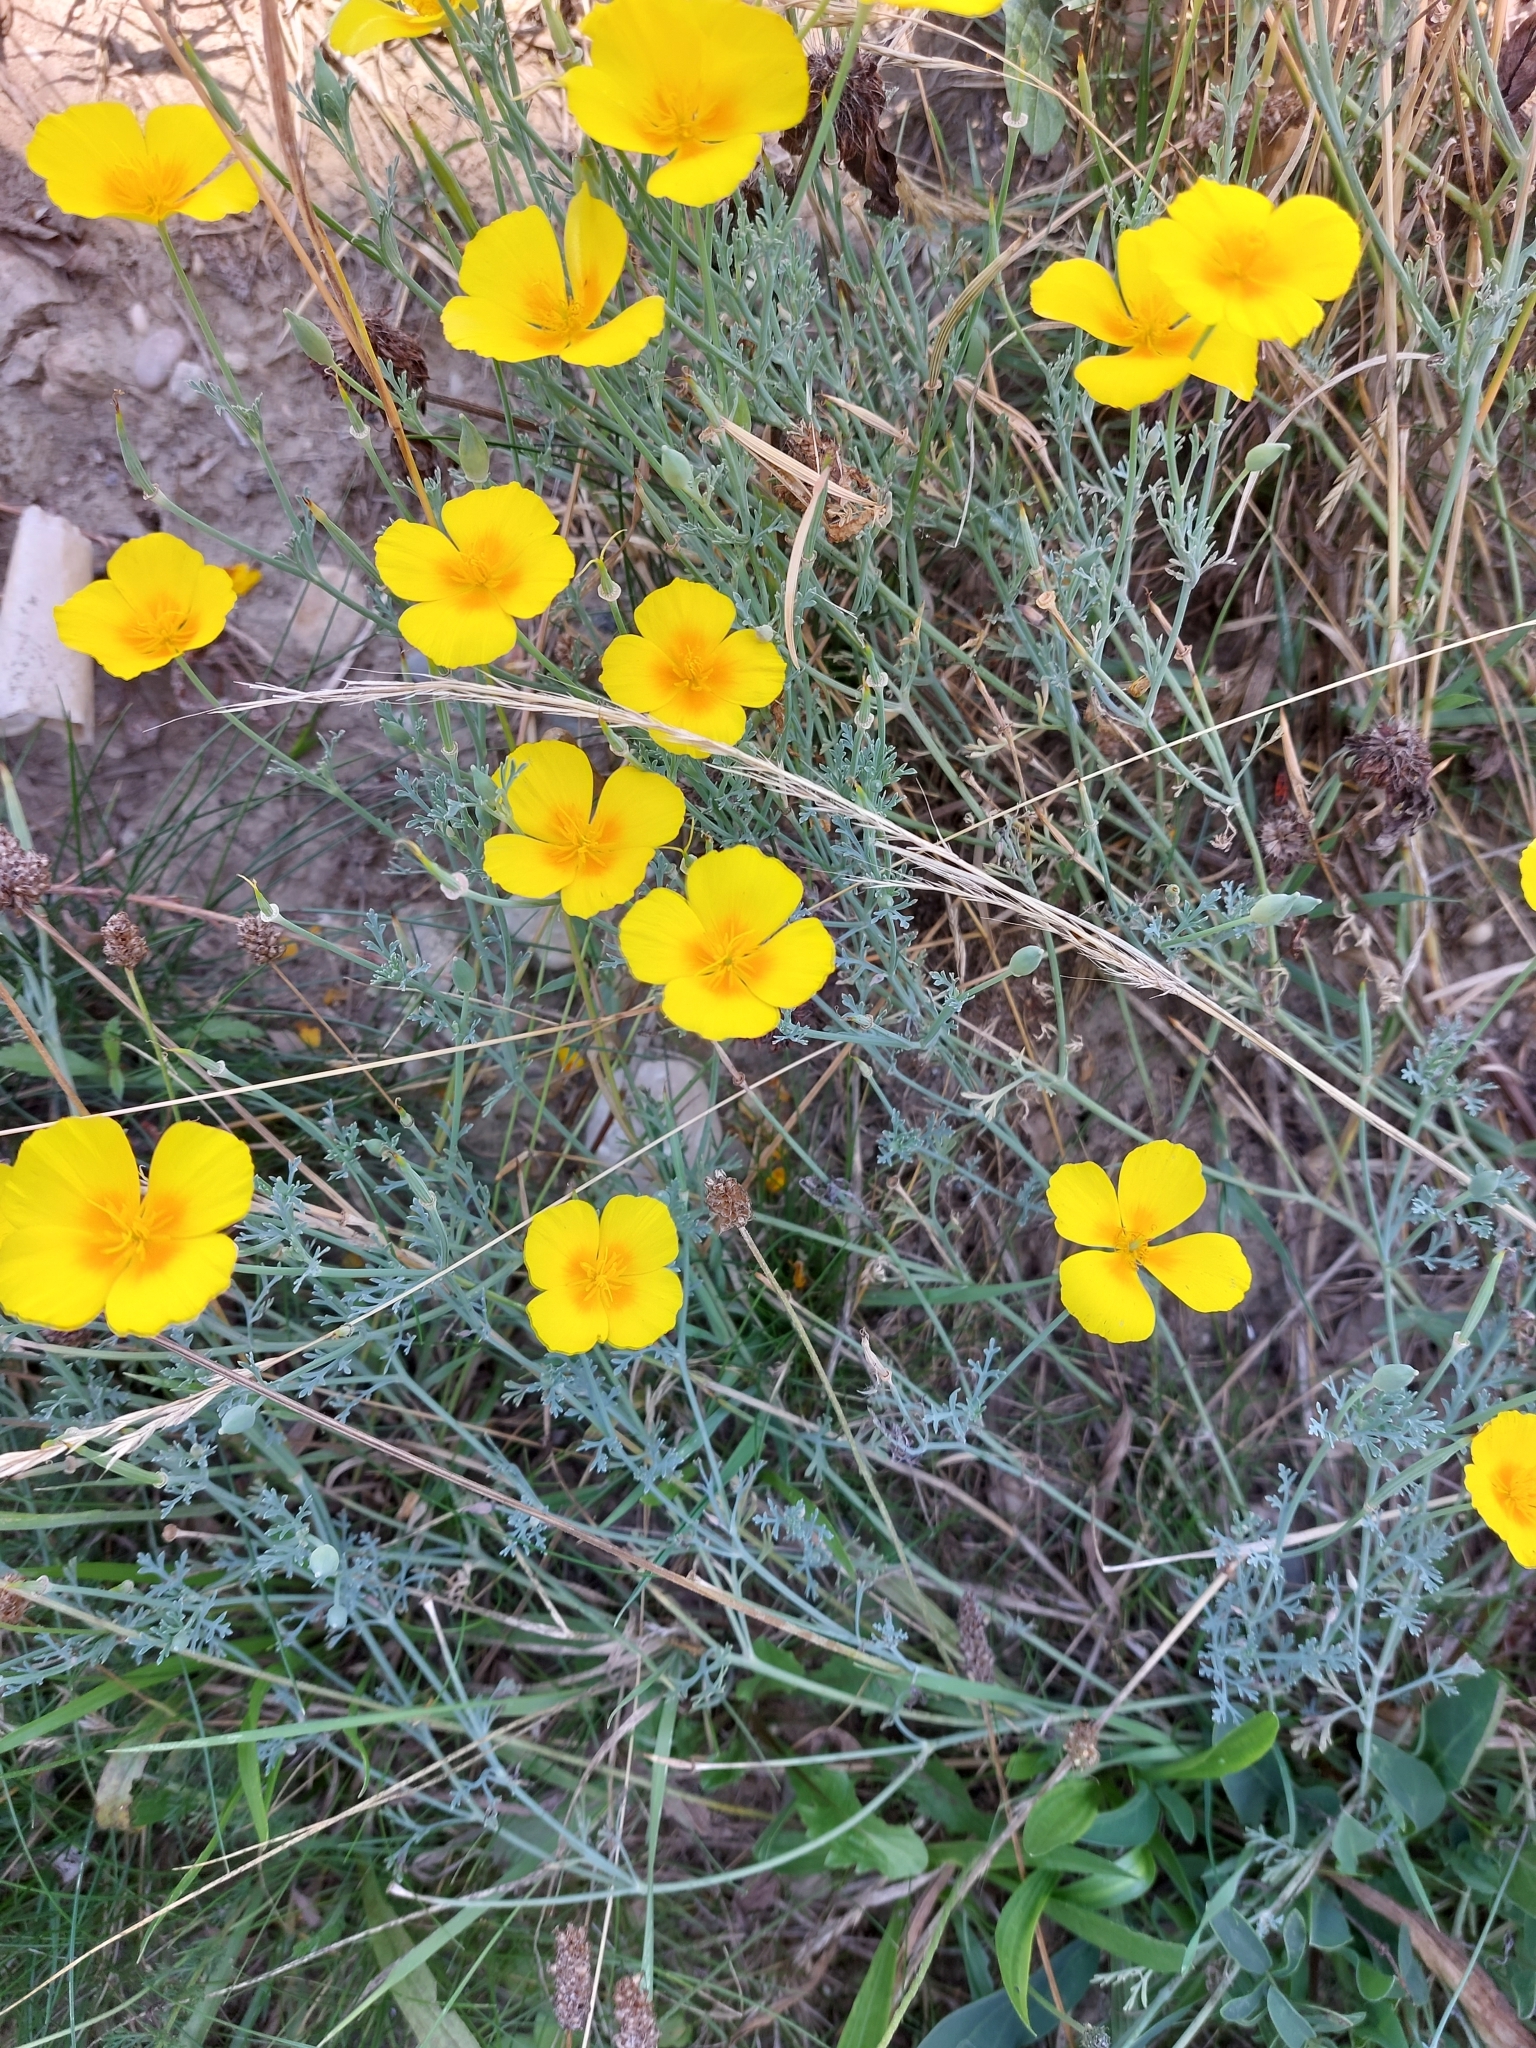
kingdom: Plantae
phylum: Tracheophyta
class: Magnoliopsida
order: Ranunculales
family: Papaveraceae
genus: Eschscholzia
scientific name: Eschscholzia californica
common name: California poppy
